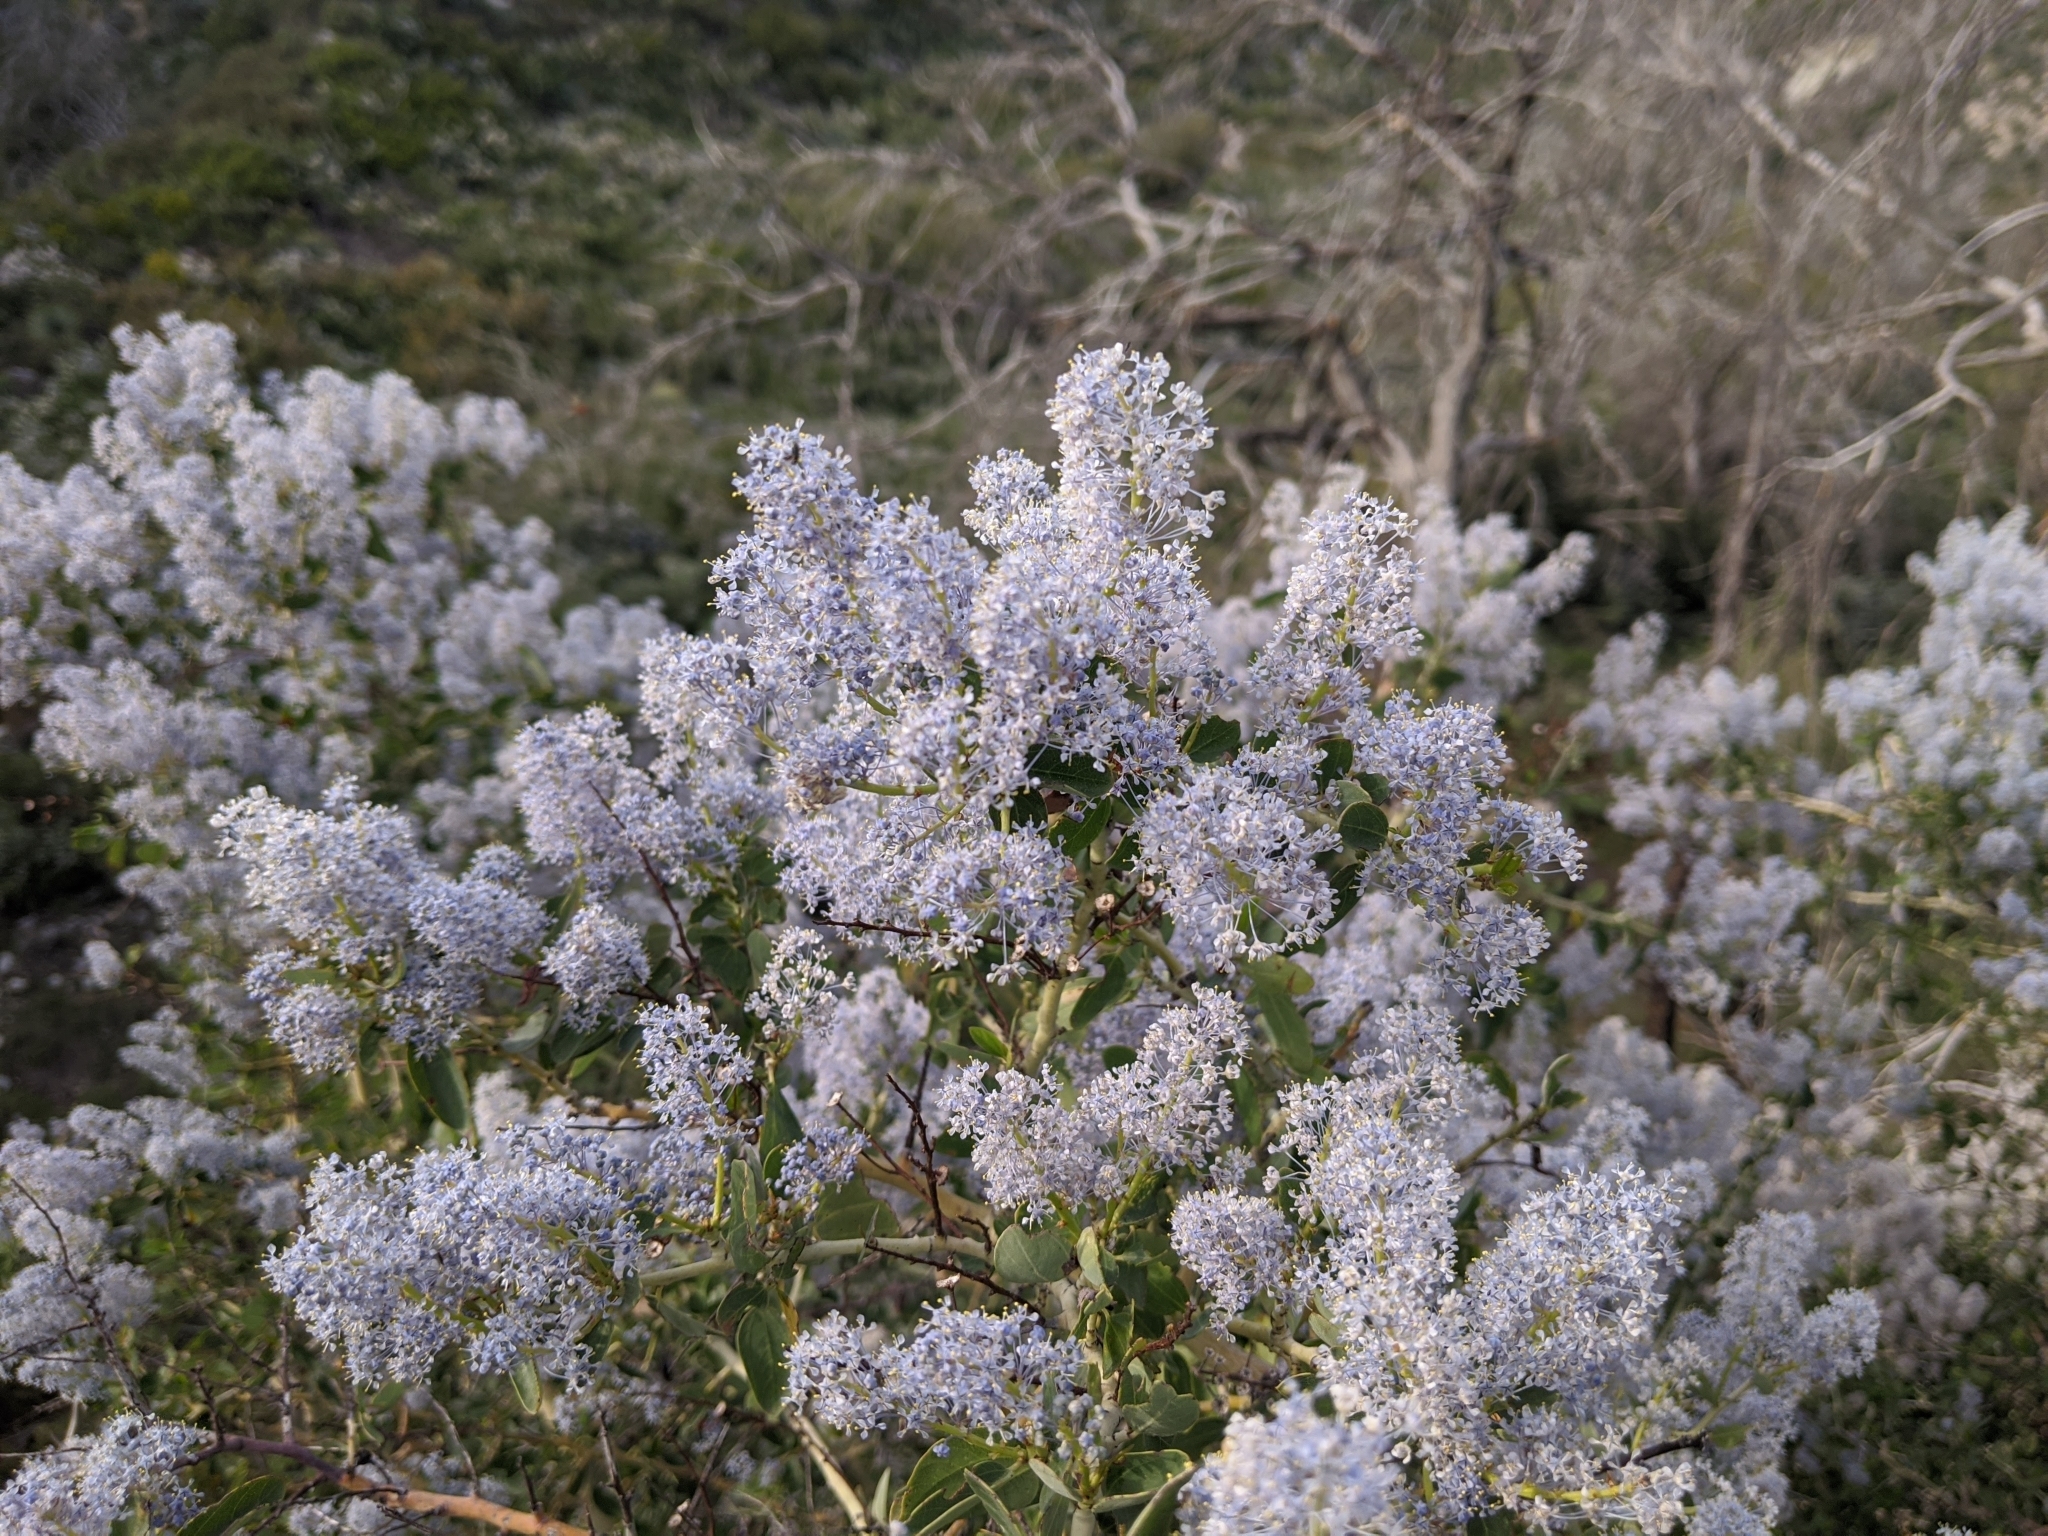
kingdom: Plantae
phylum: Tracheophyta
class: Magnoliopsida
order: Rosales
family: Rhamnaceae
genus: Ceanothus
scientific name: Ceanothus leucodermis
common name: Chaparral whitethorn
